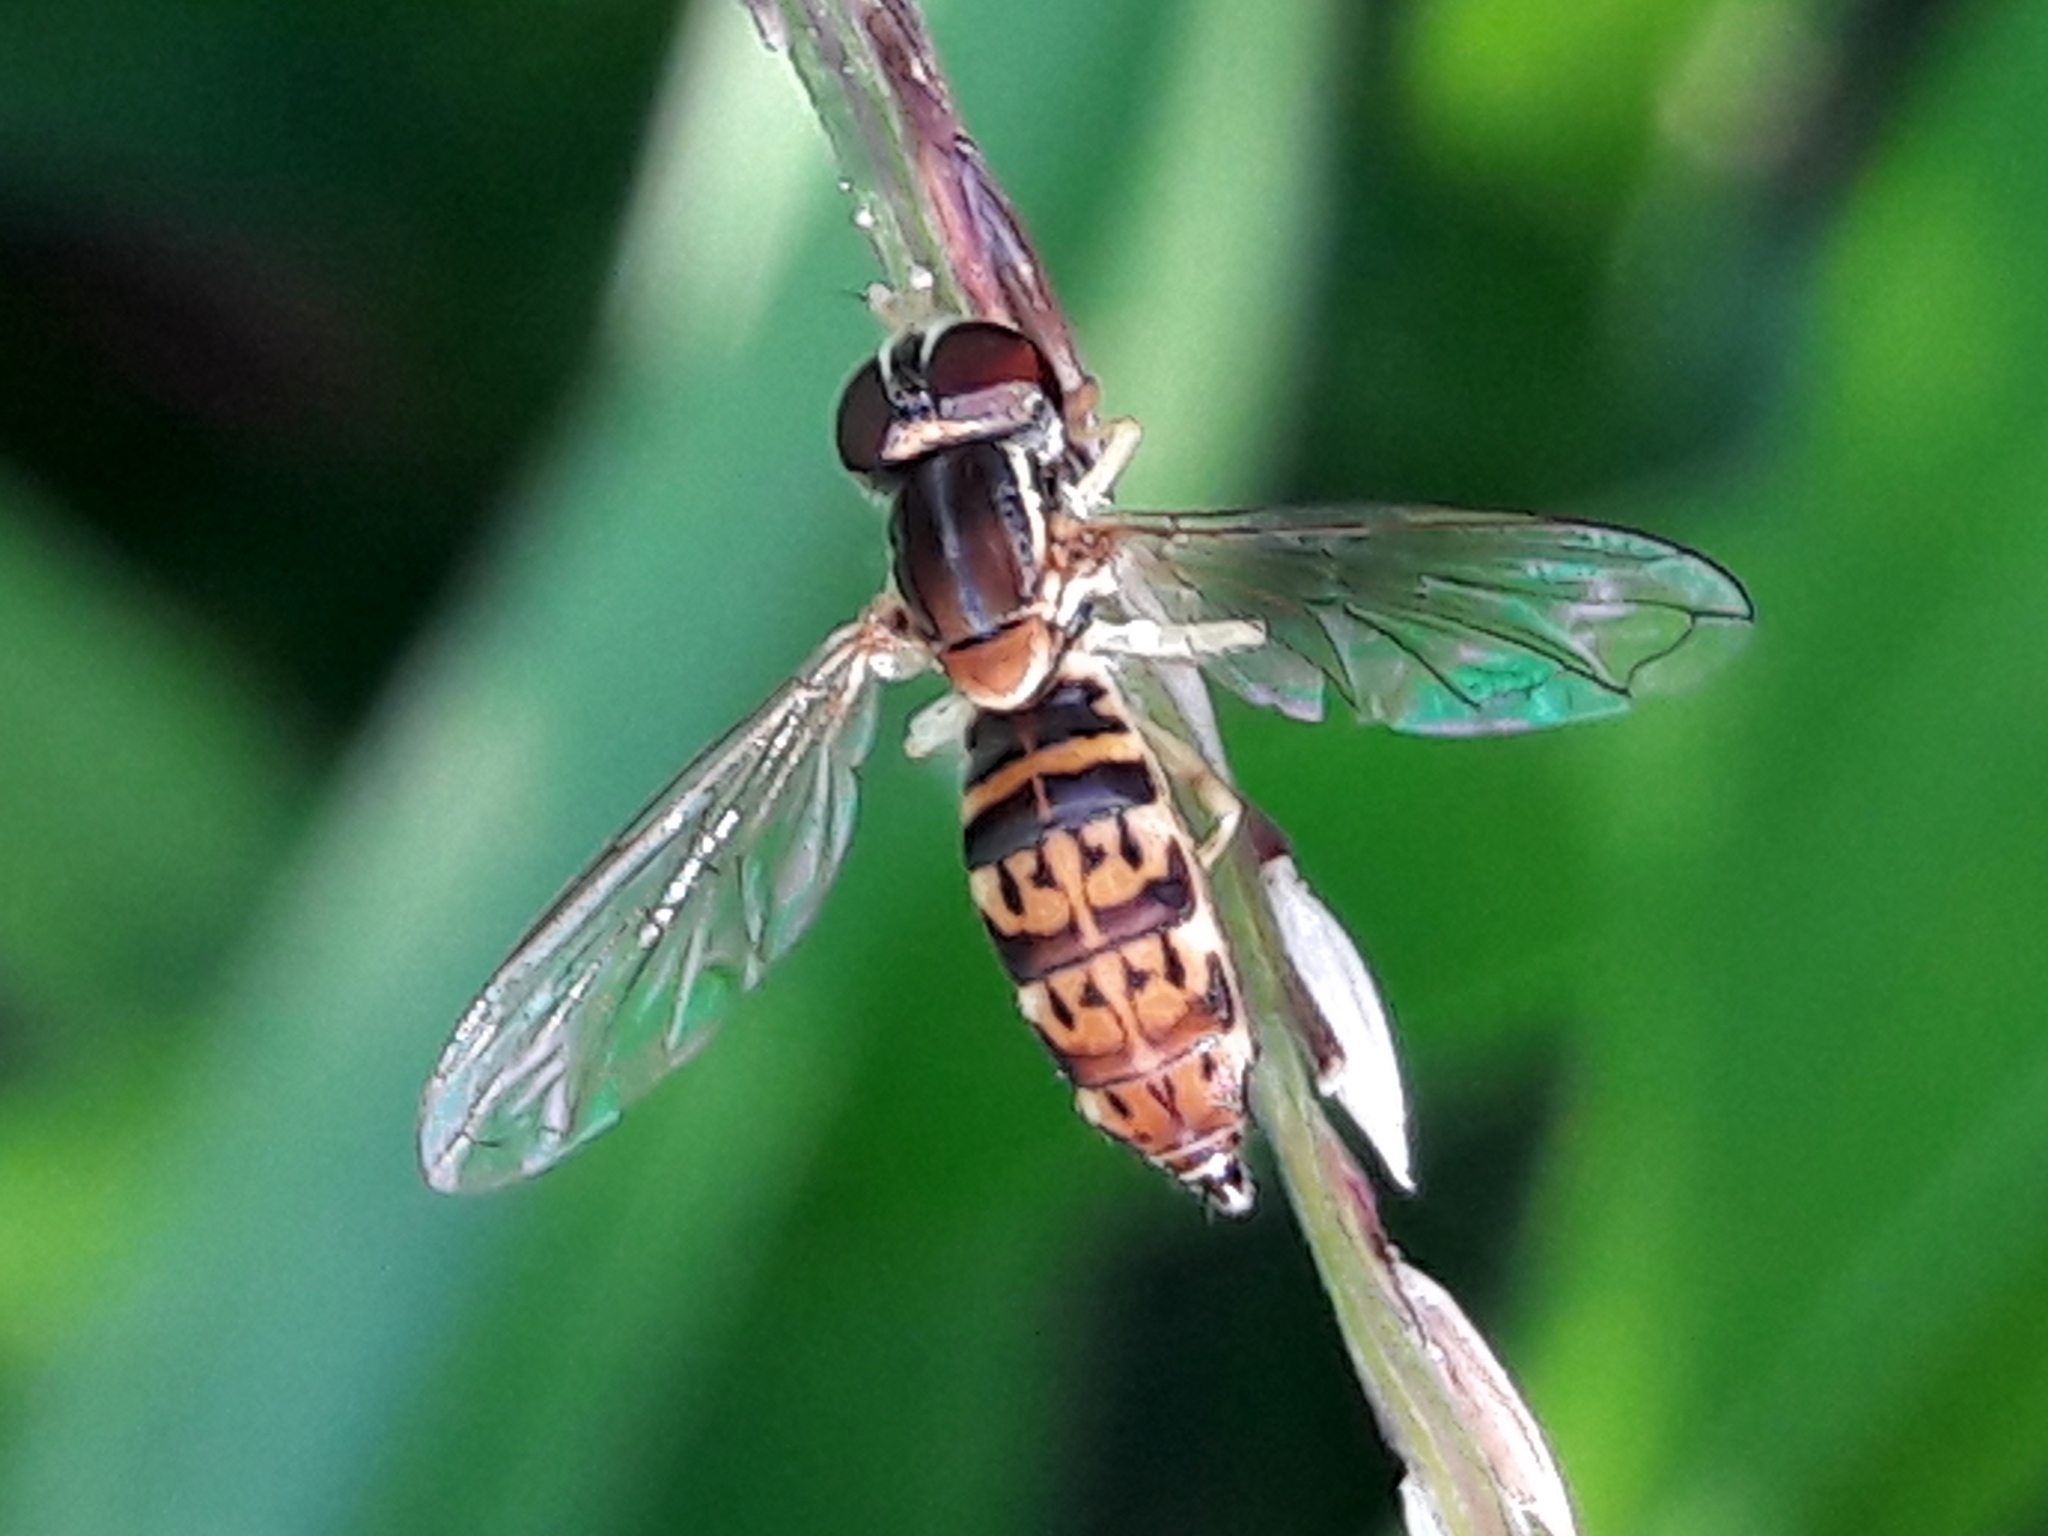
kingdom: Animalia
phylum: Arthropoda
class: Insecta
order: Diptera
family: Syrphidae
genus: Toxomerus
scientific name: Toxomerus
